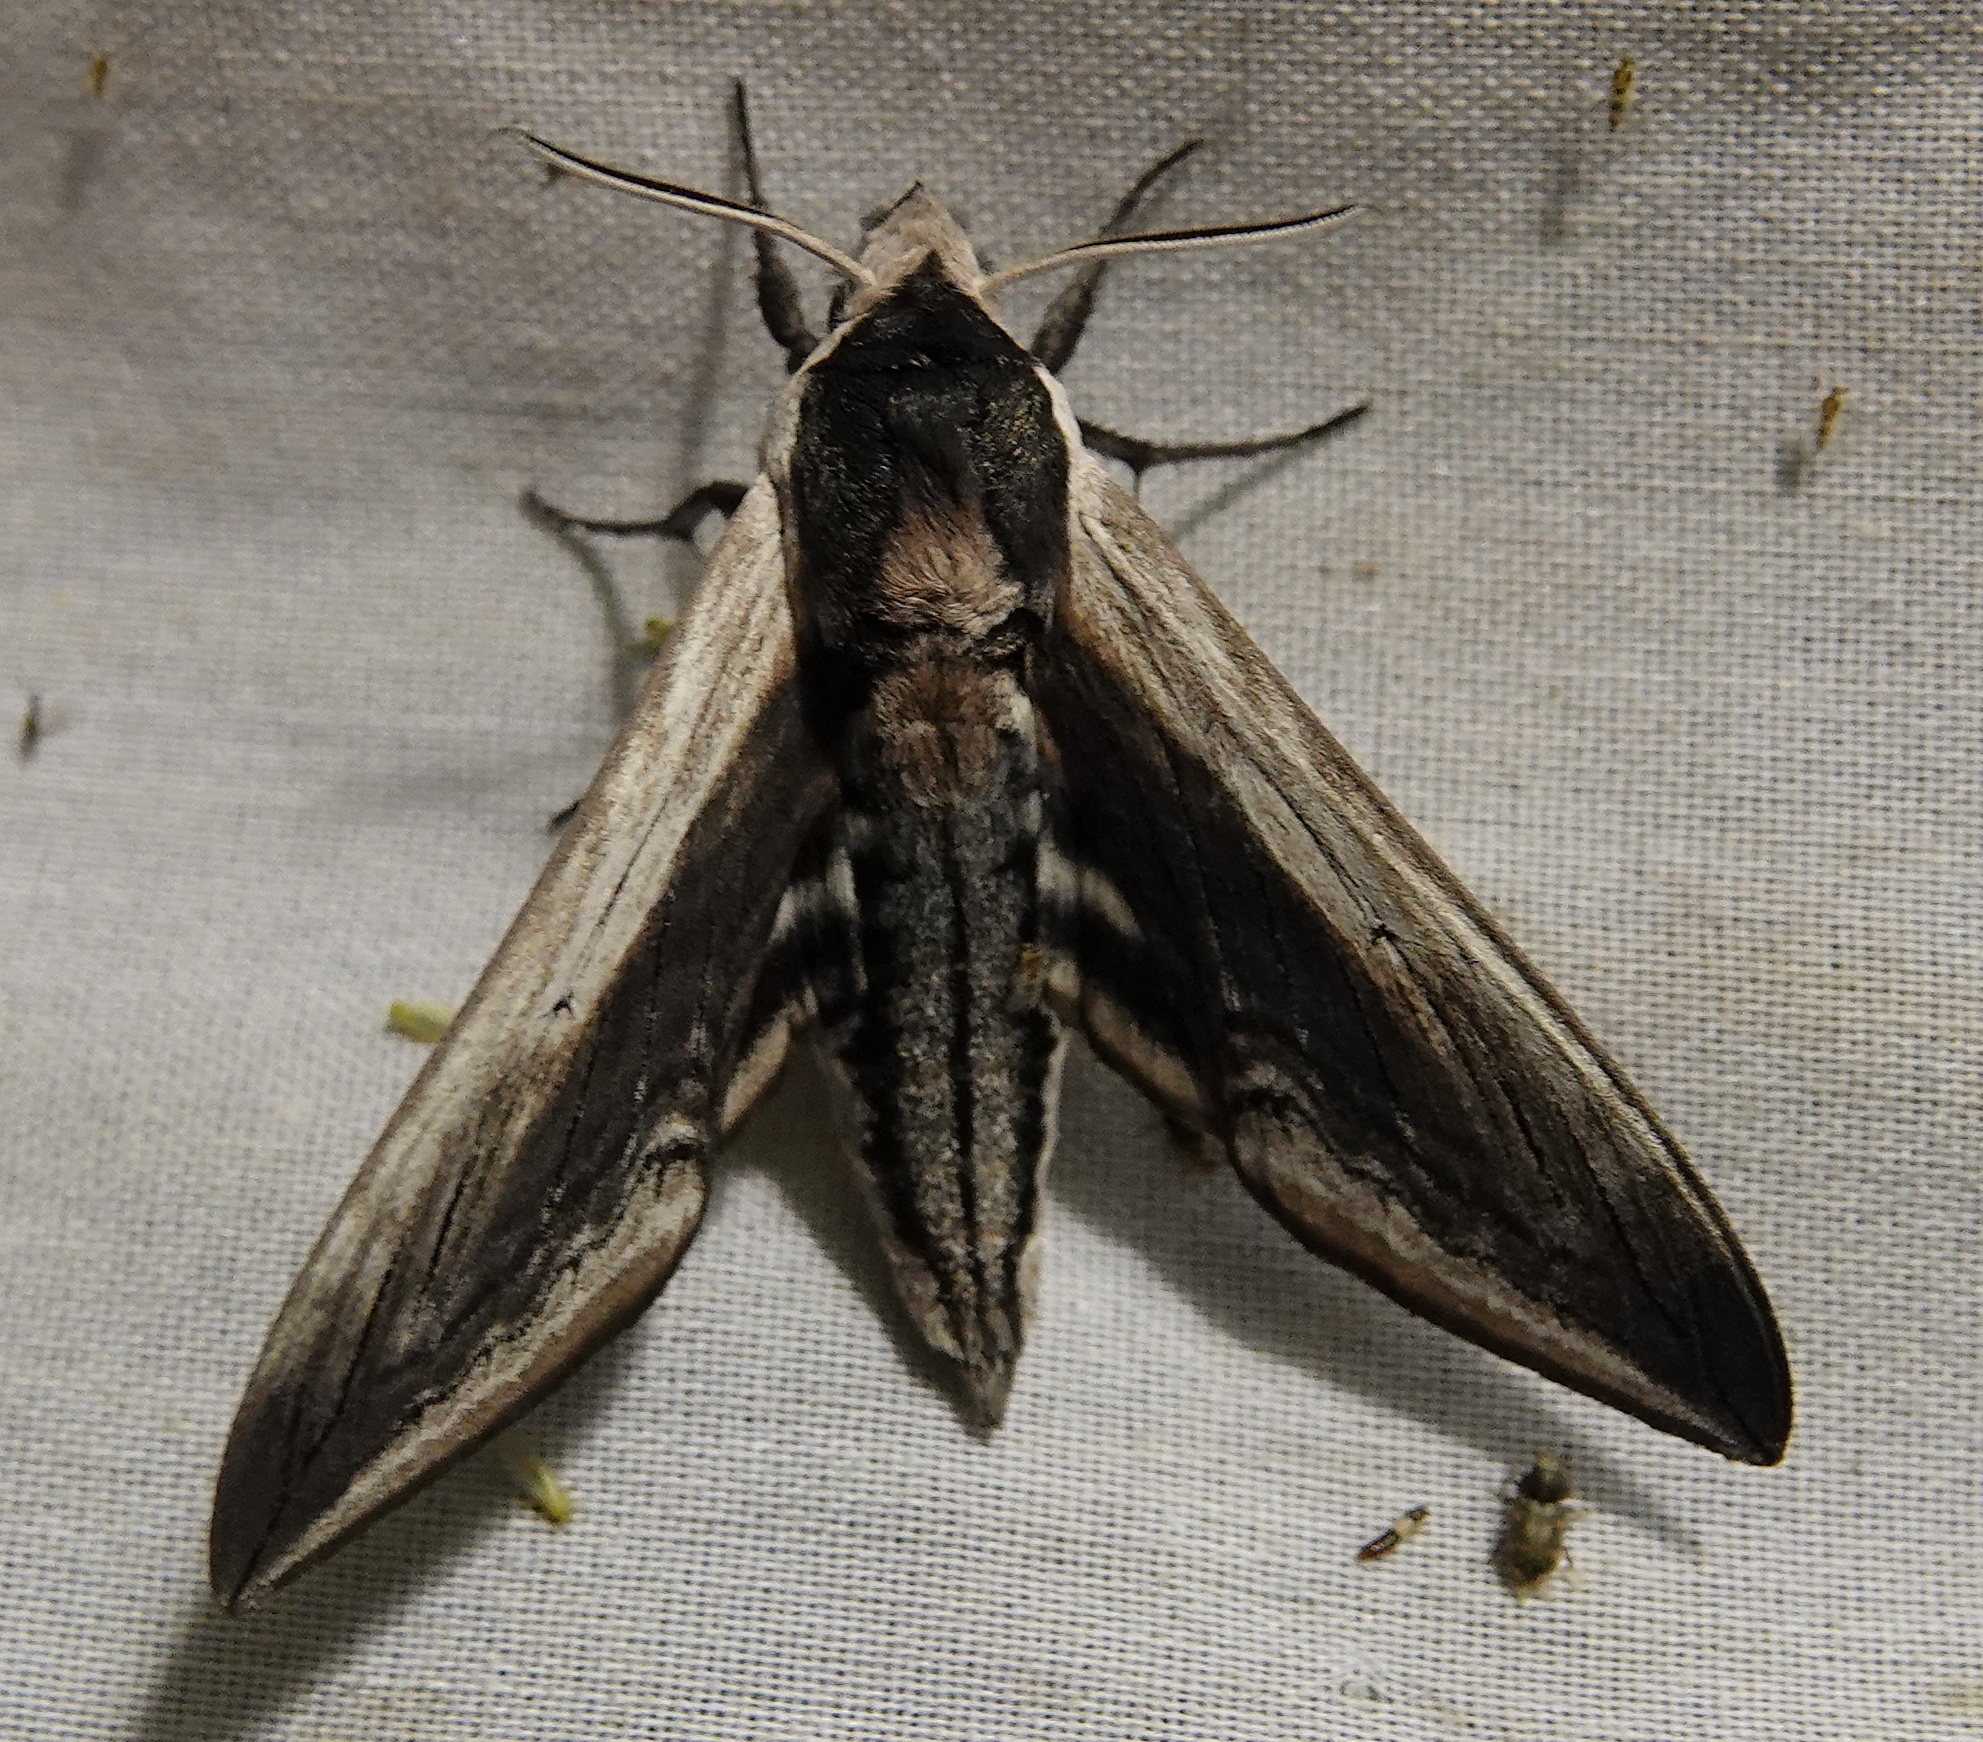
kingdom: Animalia
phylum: Arthropoda
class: Insecta
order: Lepidoptera
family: Sphingidae
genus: Sphinx
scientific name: Sphinx drupiferarum
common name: Wild cherry sphinx
